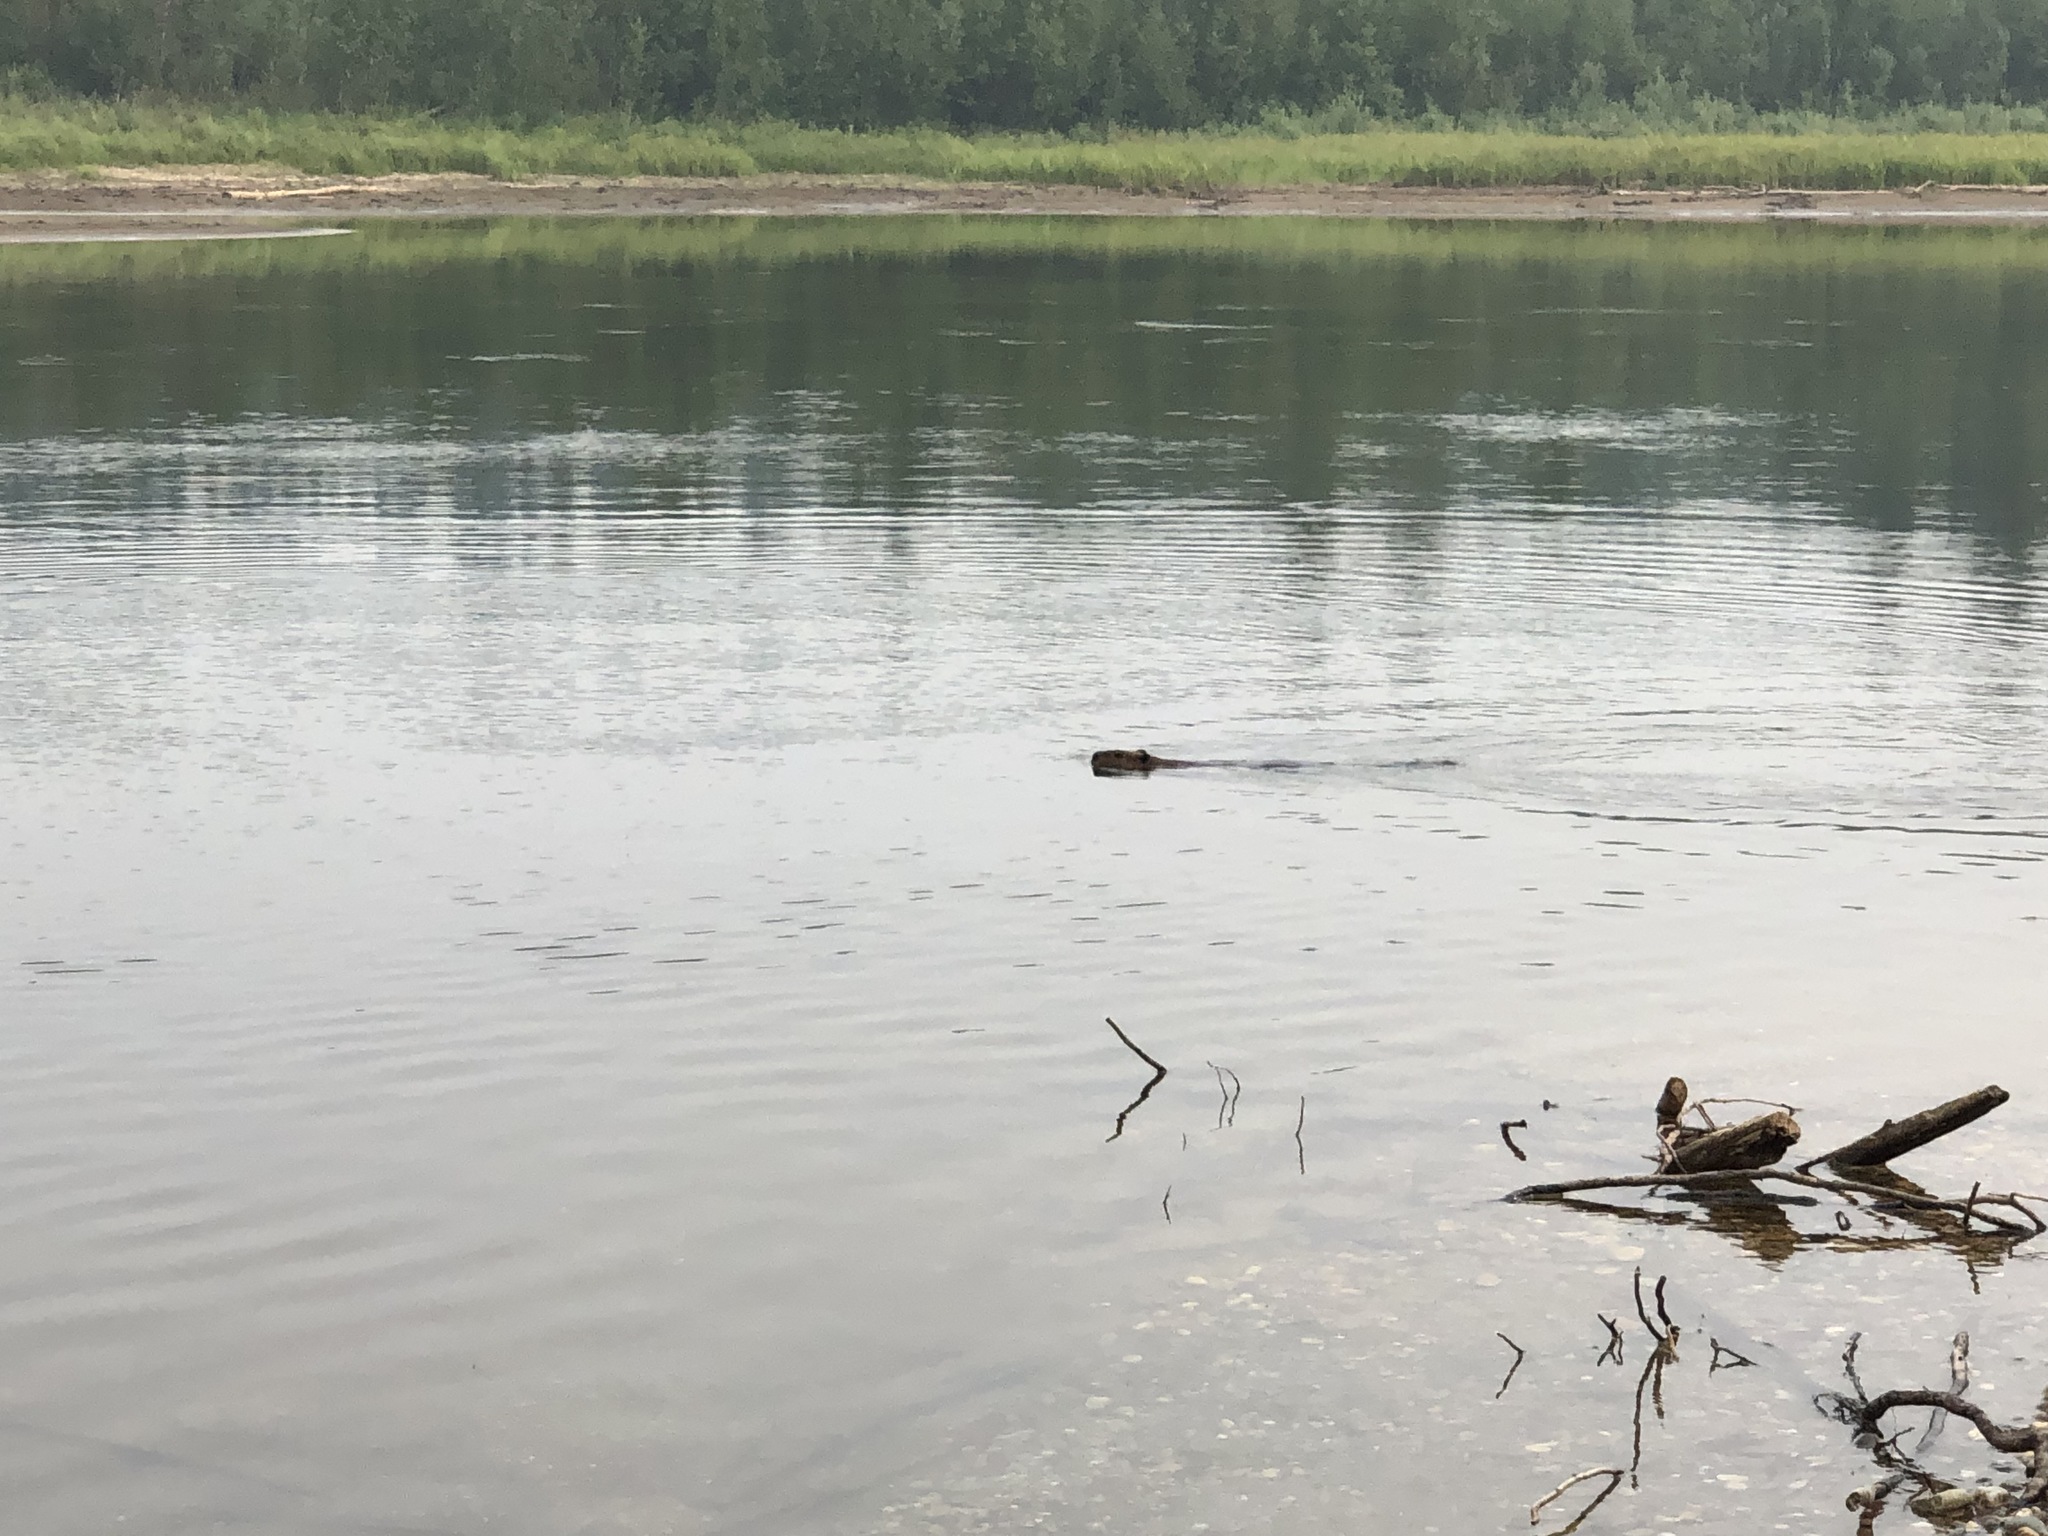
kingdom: Animalia
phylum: Chordata
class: Mammalia
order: Rodentia
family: Castoridae
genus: Castor
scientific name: Castor canadensis
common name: American beaver
